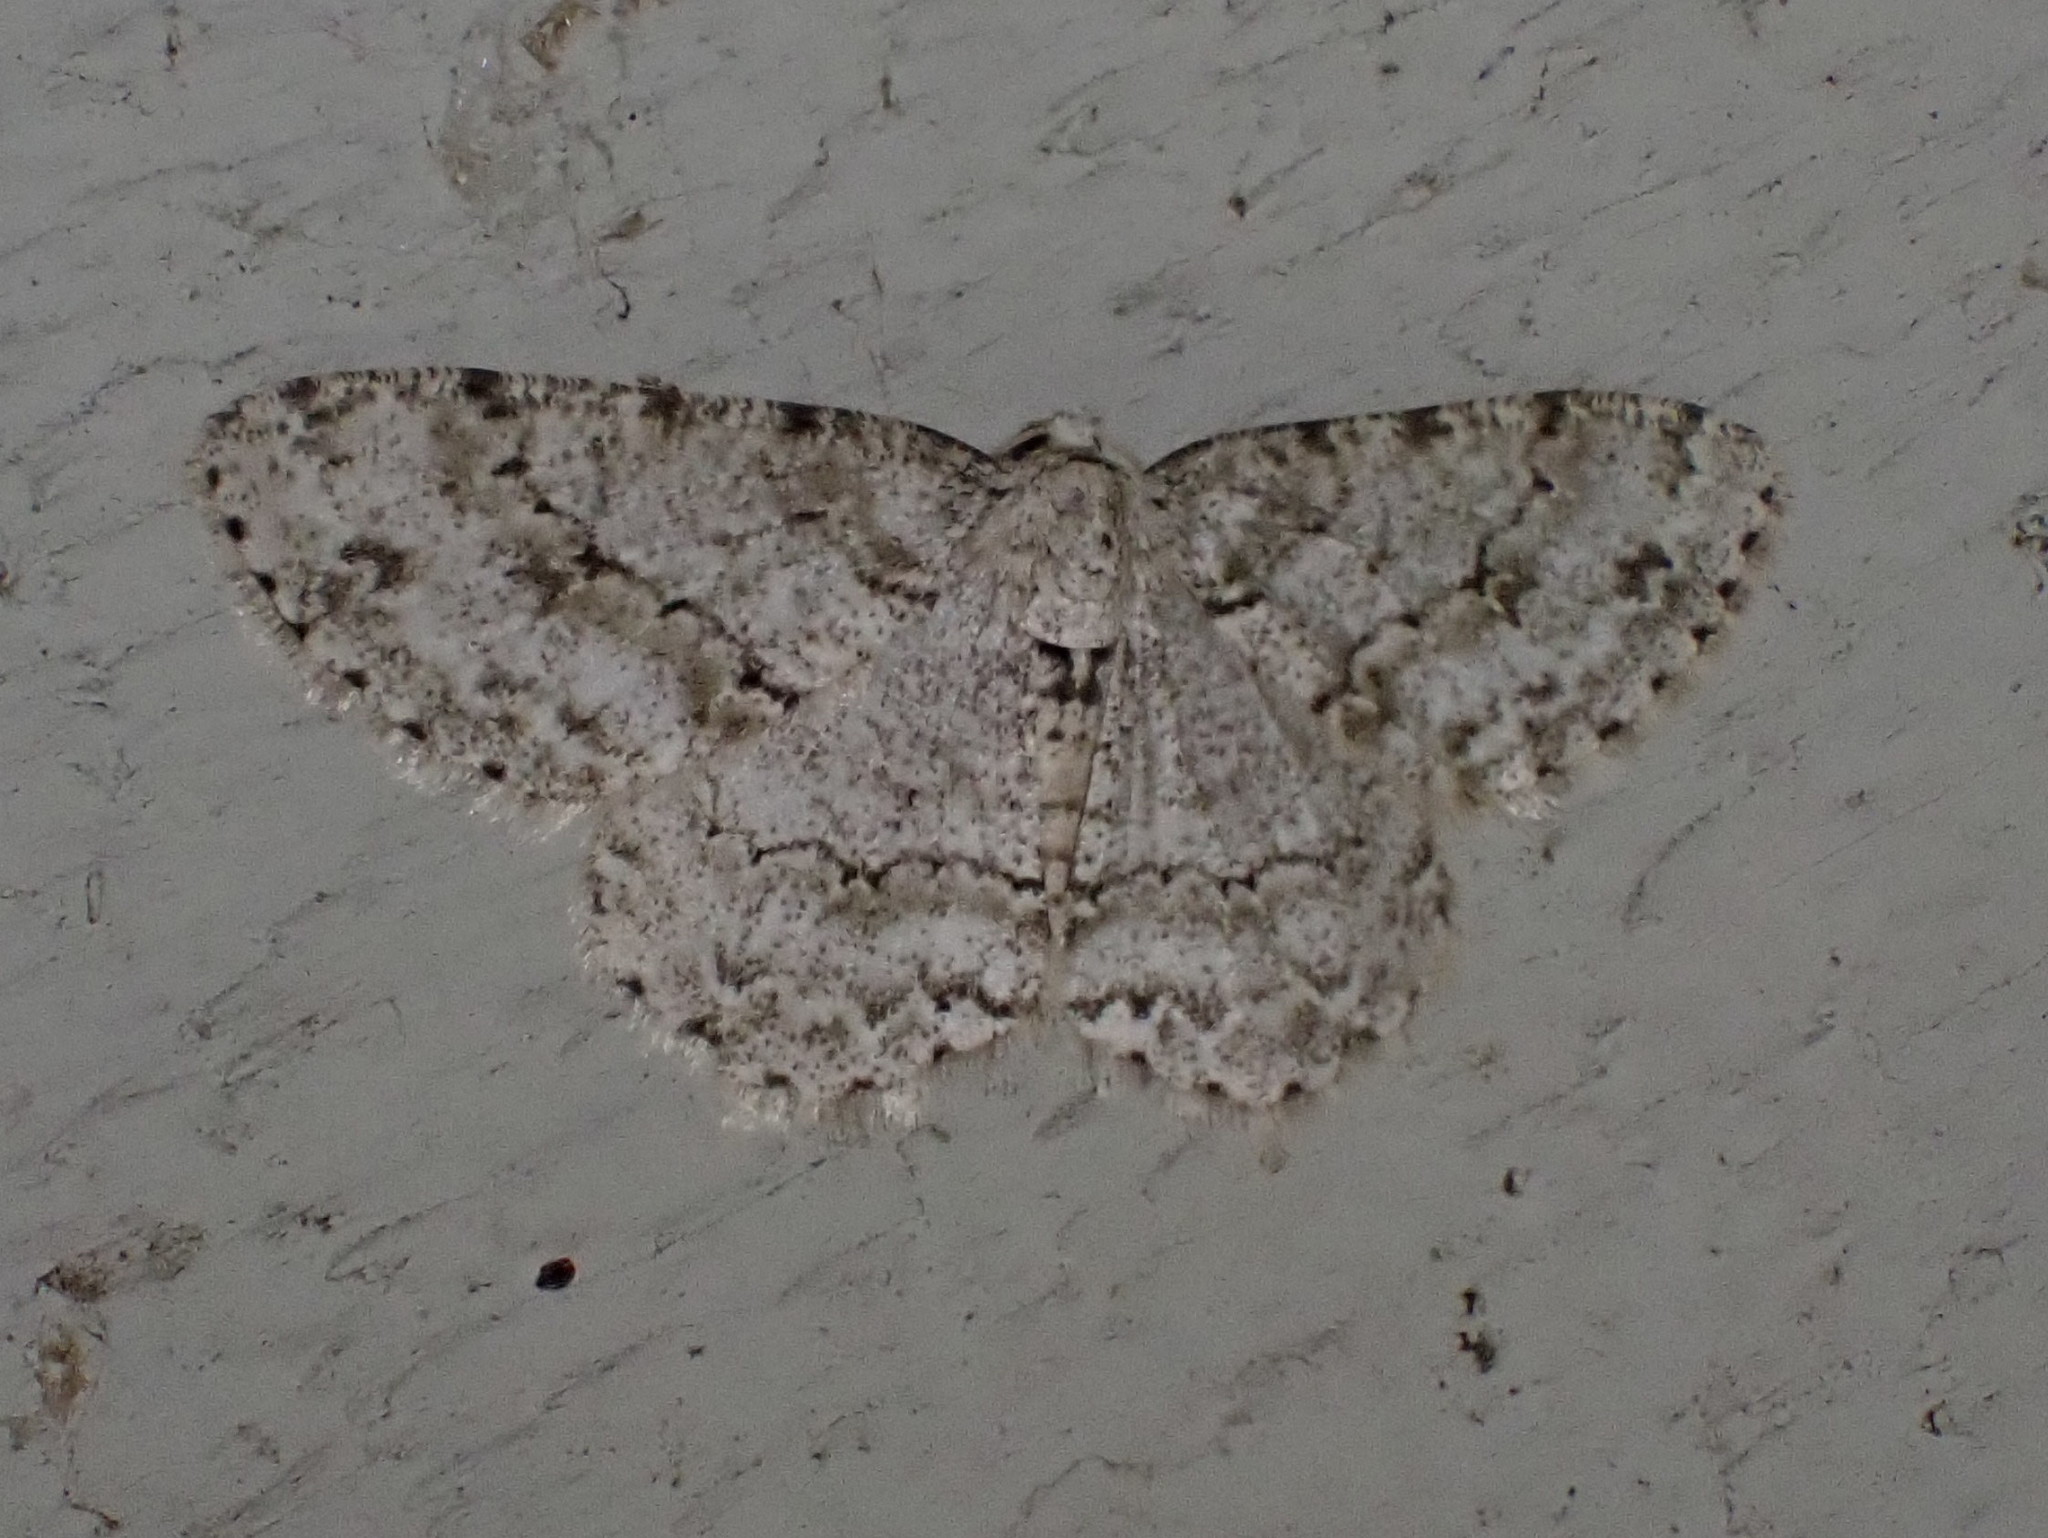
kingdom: Animalia
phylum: Arthropoda
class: Insecta
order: Lepidoptera
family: Geometridae
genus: Ectropis
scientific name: Ectropis crepuscularia
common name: Engrailed
